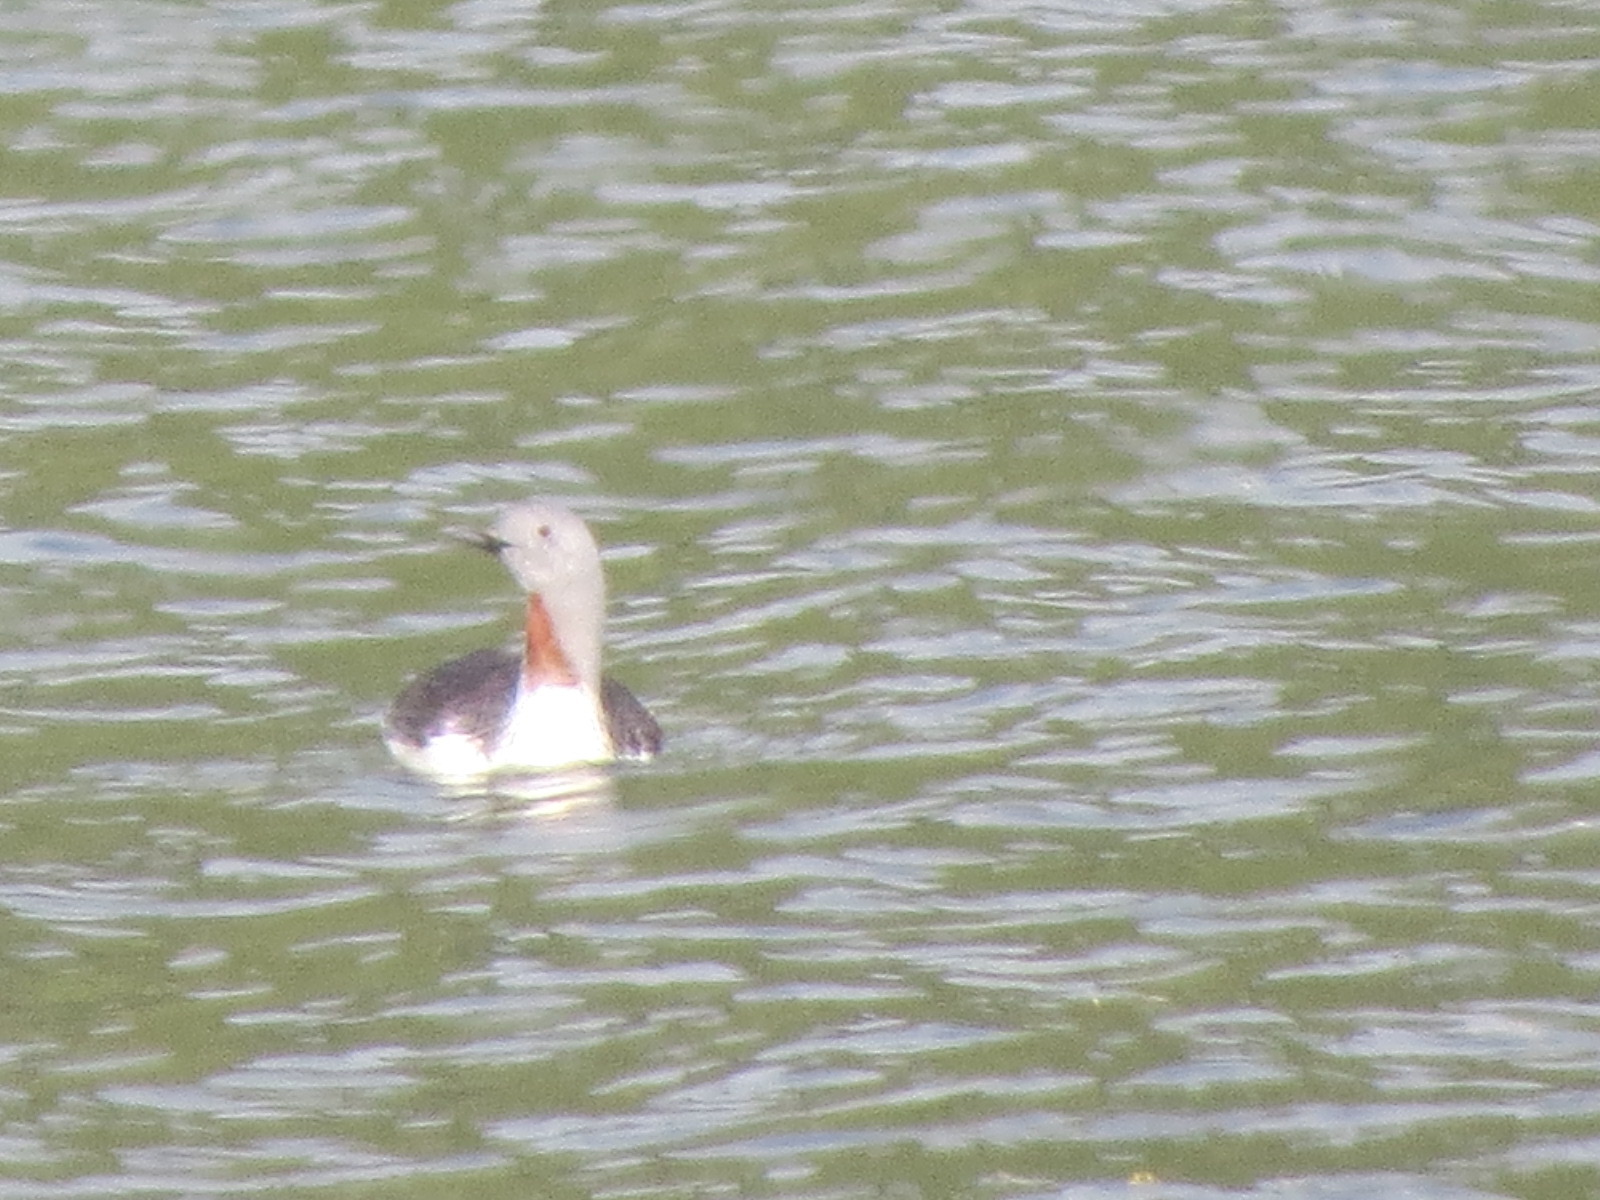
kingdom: Animalia
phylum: Chordata
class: Aves
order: Gaviiformes
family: Gaviidae
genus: Gavia
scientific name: Gavia stellata
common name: Red-throated loon
